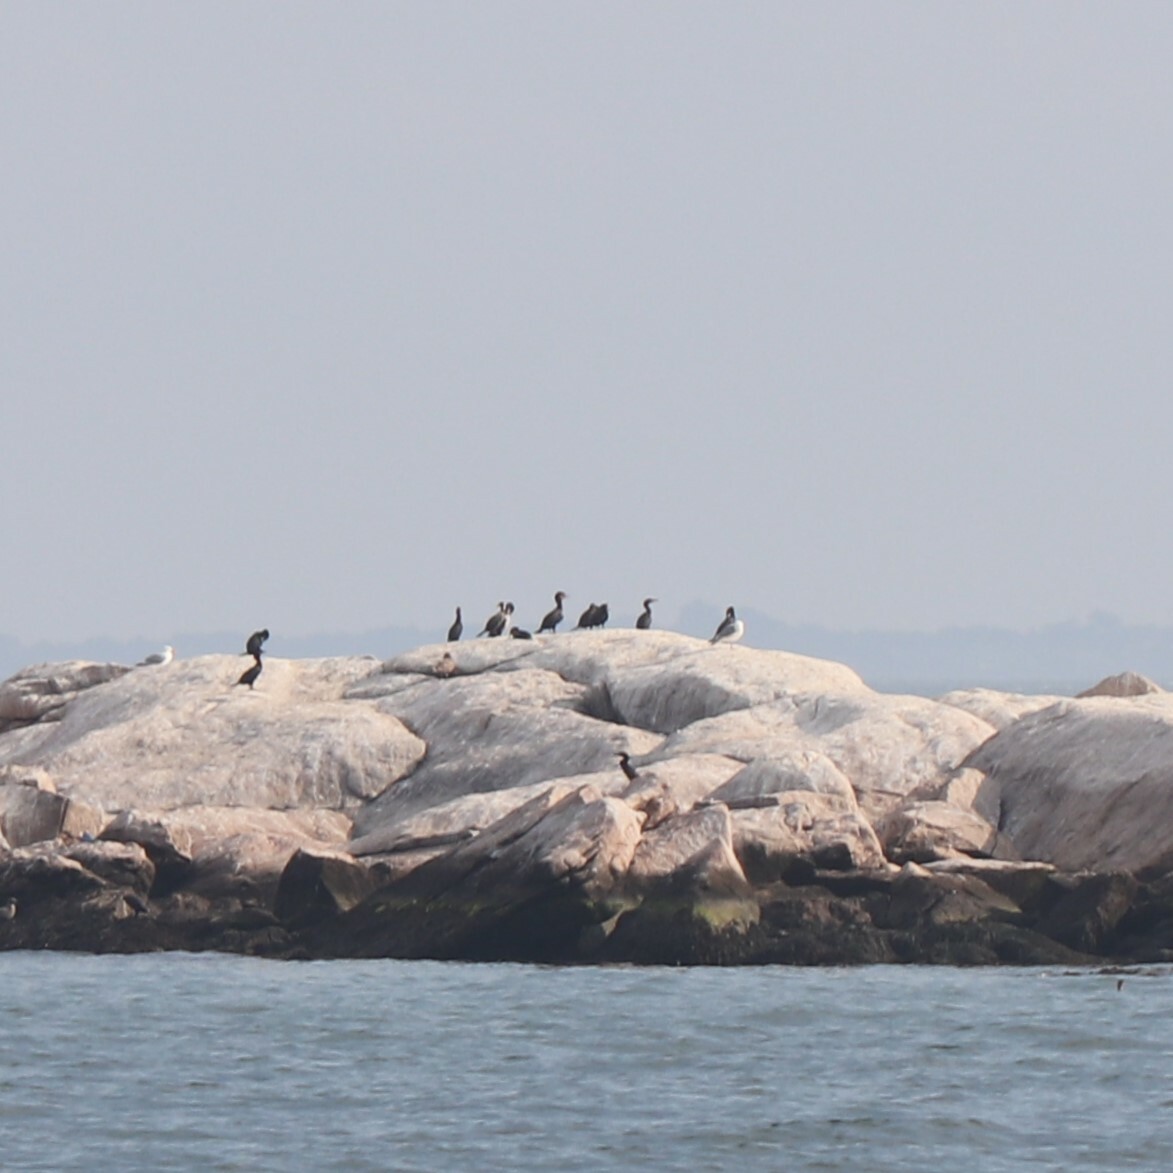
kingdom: Animalia
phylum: Chordata
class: Aves
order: Suliformes
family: Phalacrocoracidae
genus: Phalacrocorax
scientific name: Phalacrocorax auritus
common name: Double-crested cormorant
